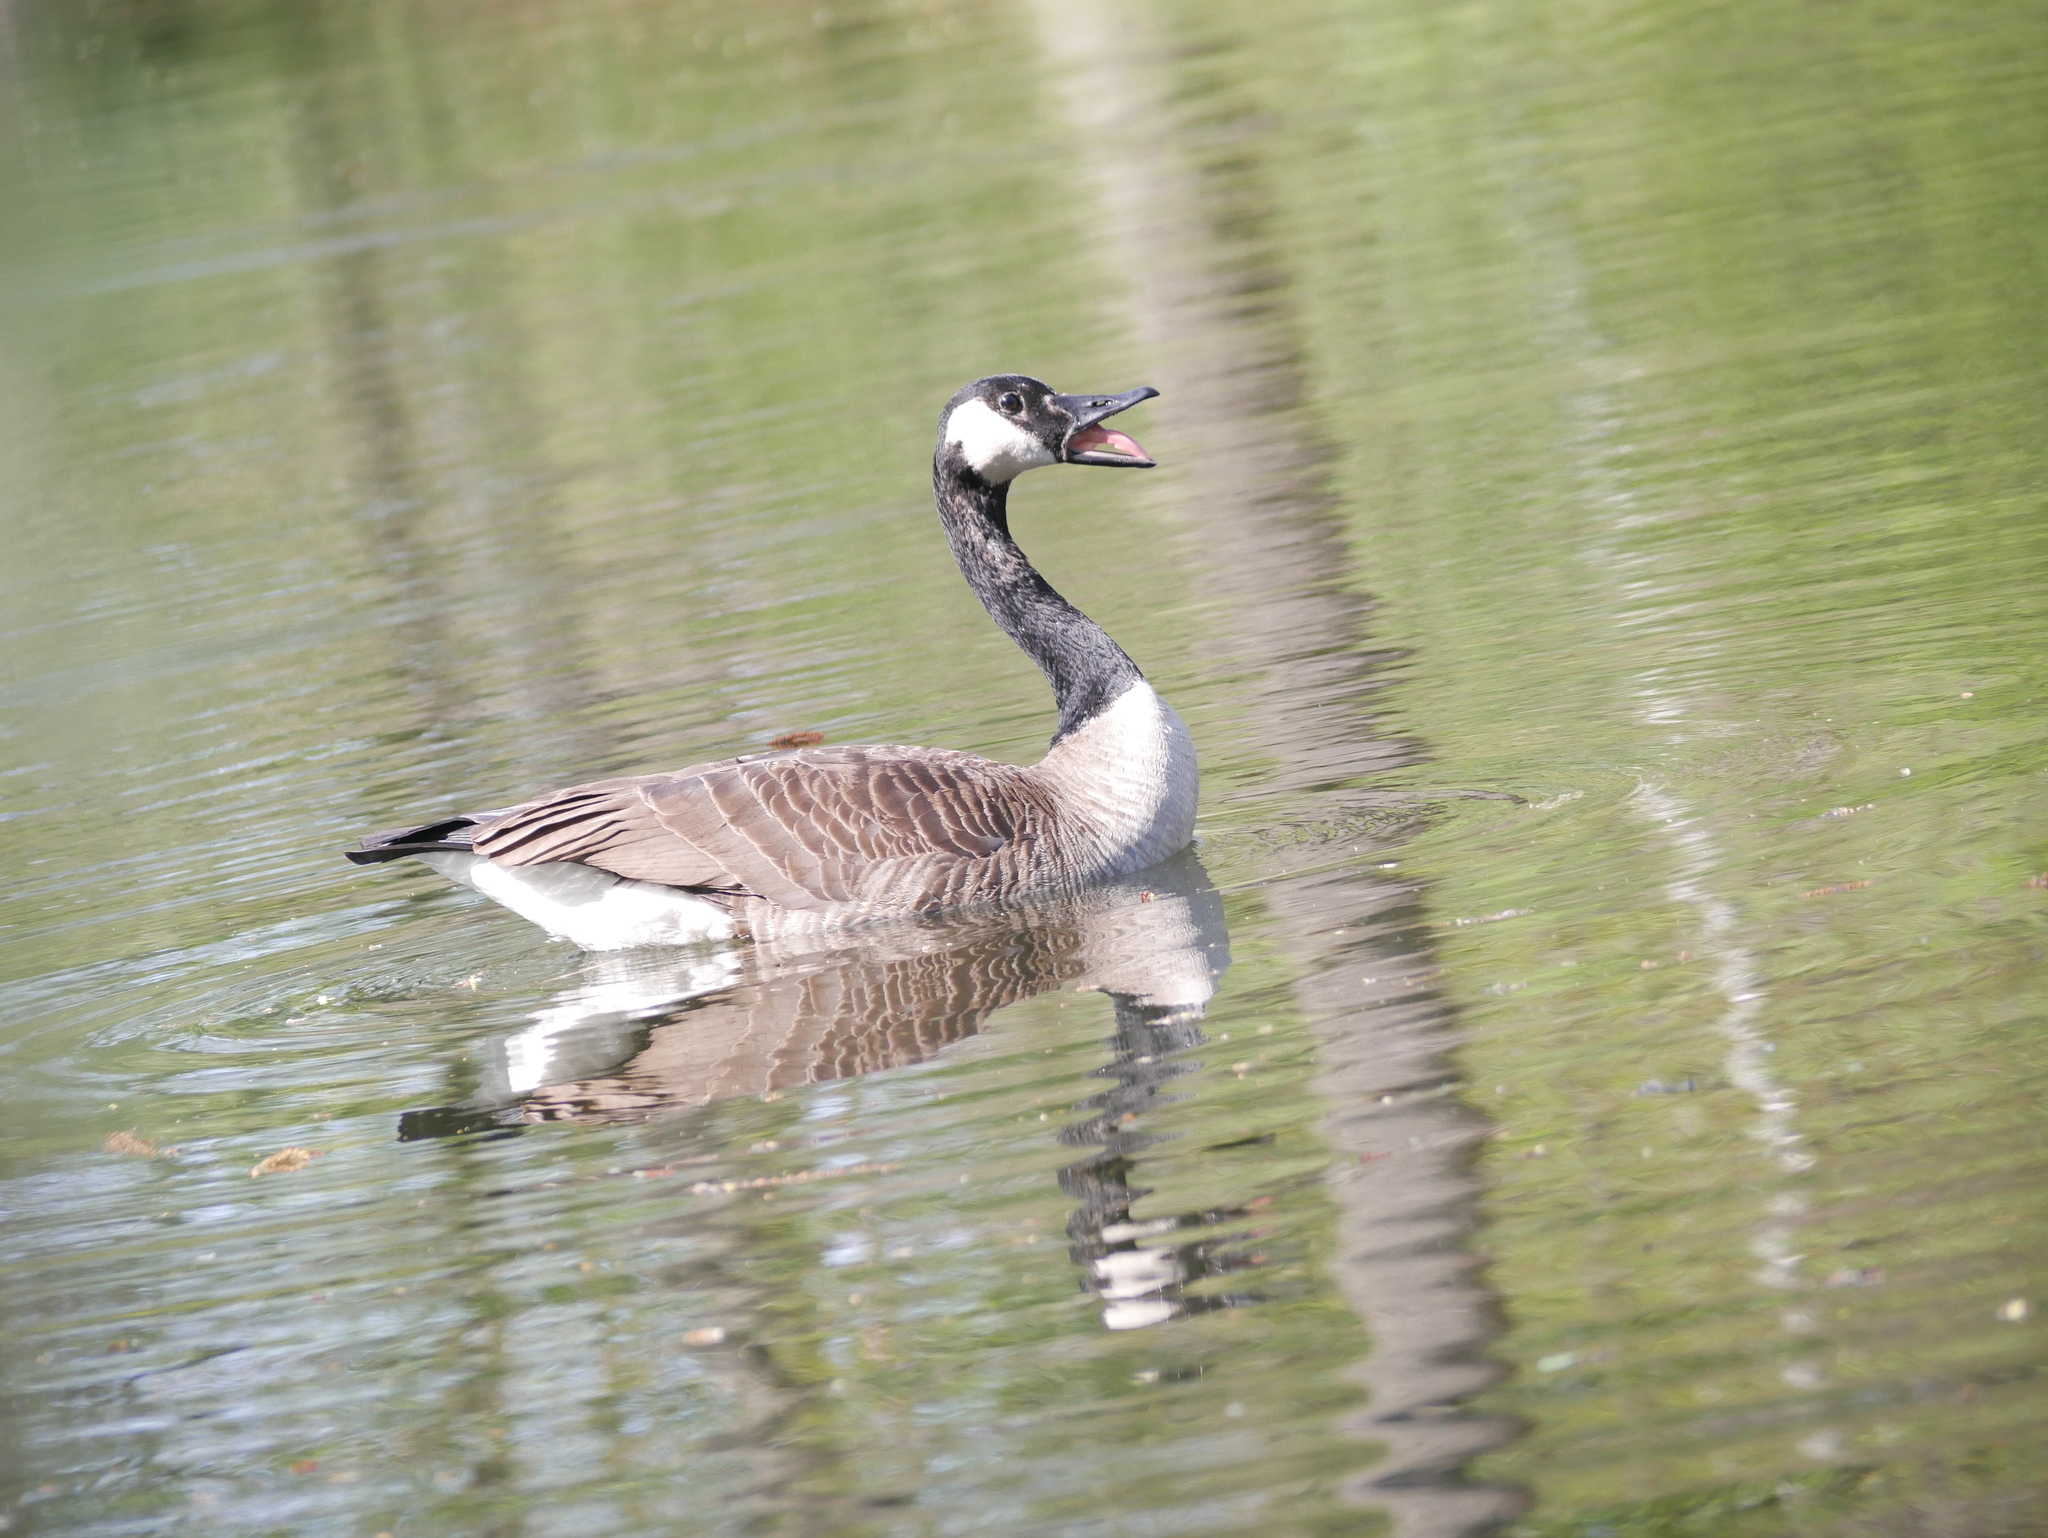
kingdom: Animalia
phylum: Chordata
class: Aves
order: Anseriformes
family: Anatidae
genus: Branta
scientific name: Branta canadensis
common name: Canada goose
